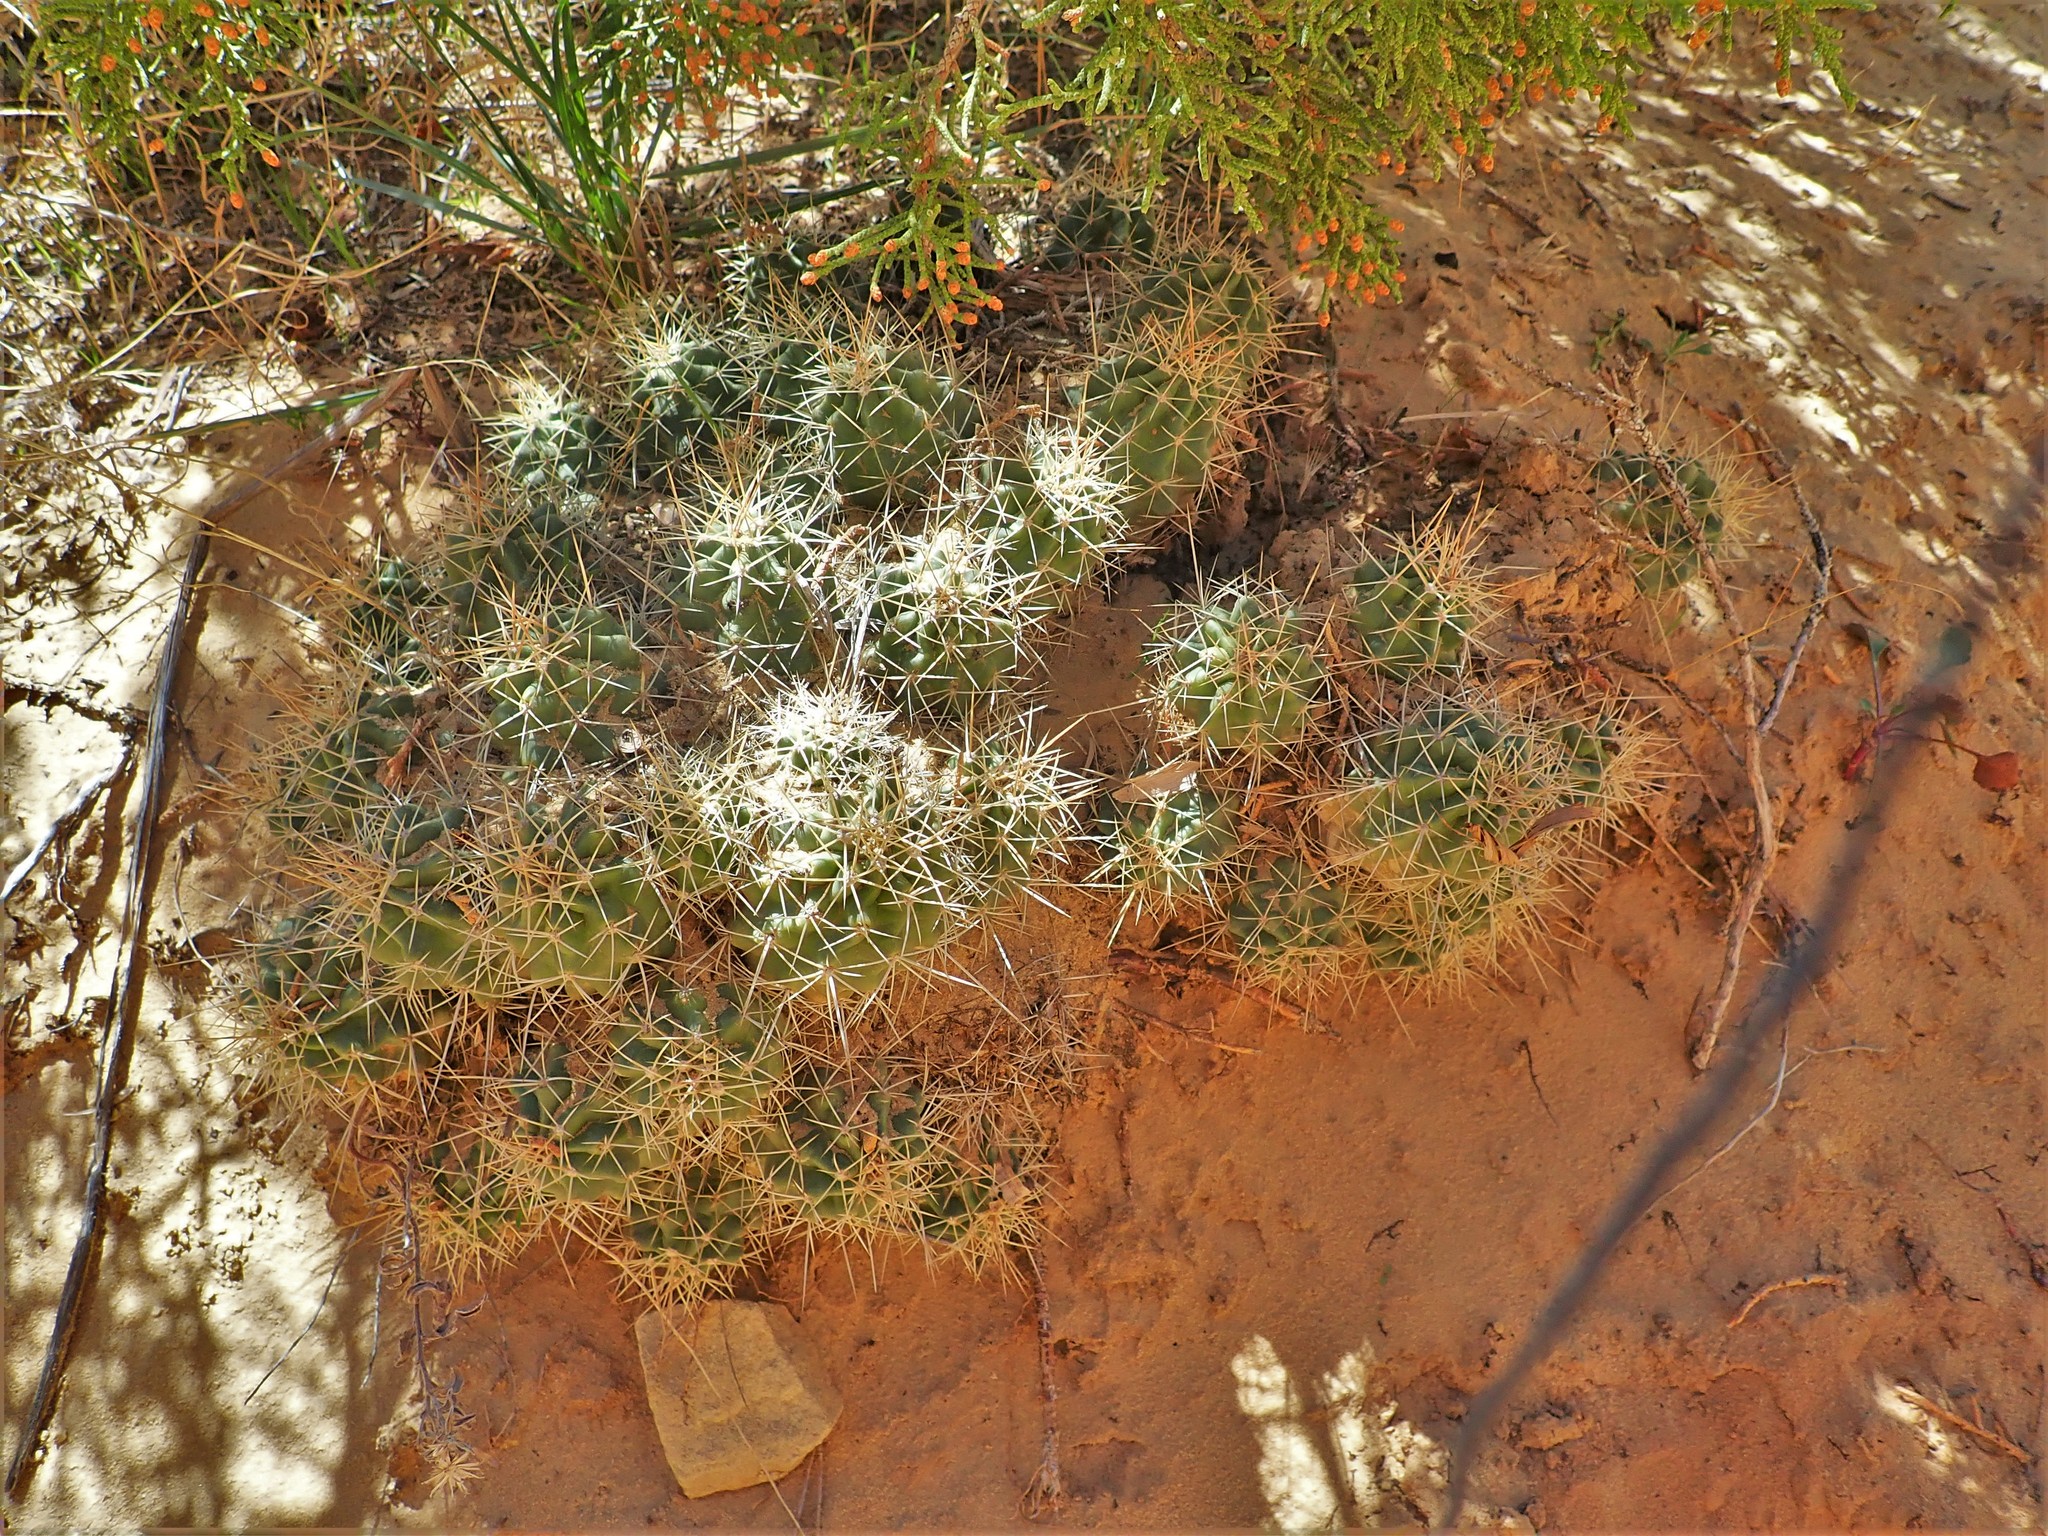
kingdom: Plantae
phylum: Tracheophyta
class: Magnoliopsida
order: Caryophyllales
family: Cactaceae
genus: Echinocereus
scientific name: Echinocereus triglochidiatus
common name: Claretcup hedgehog
